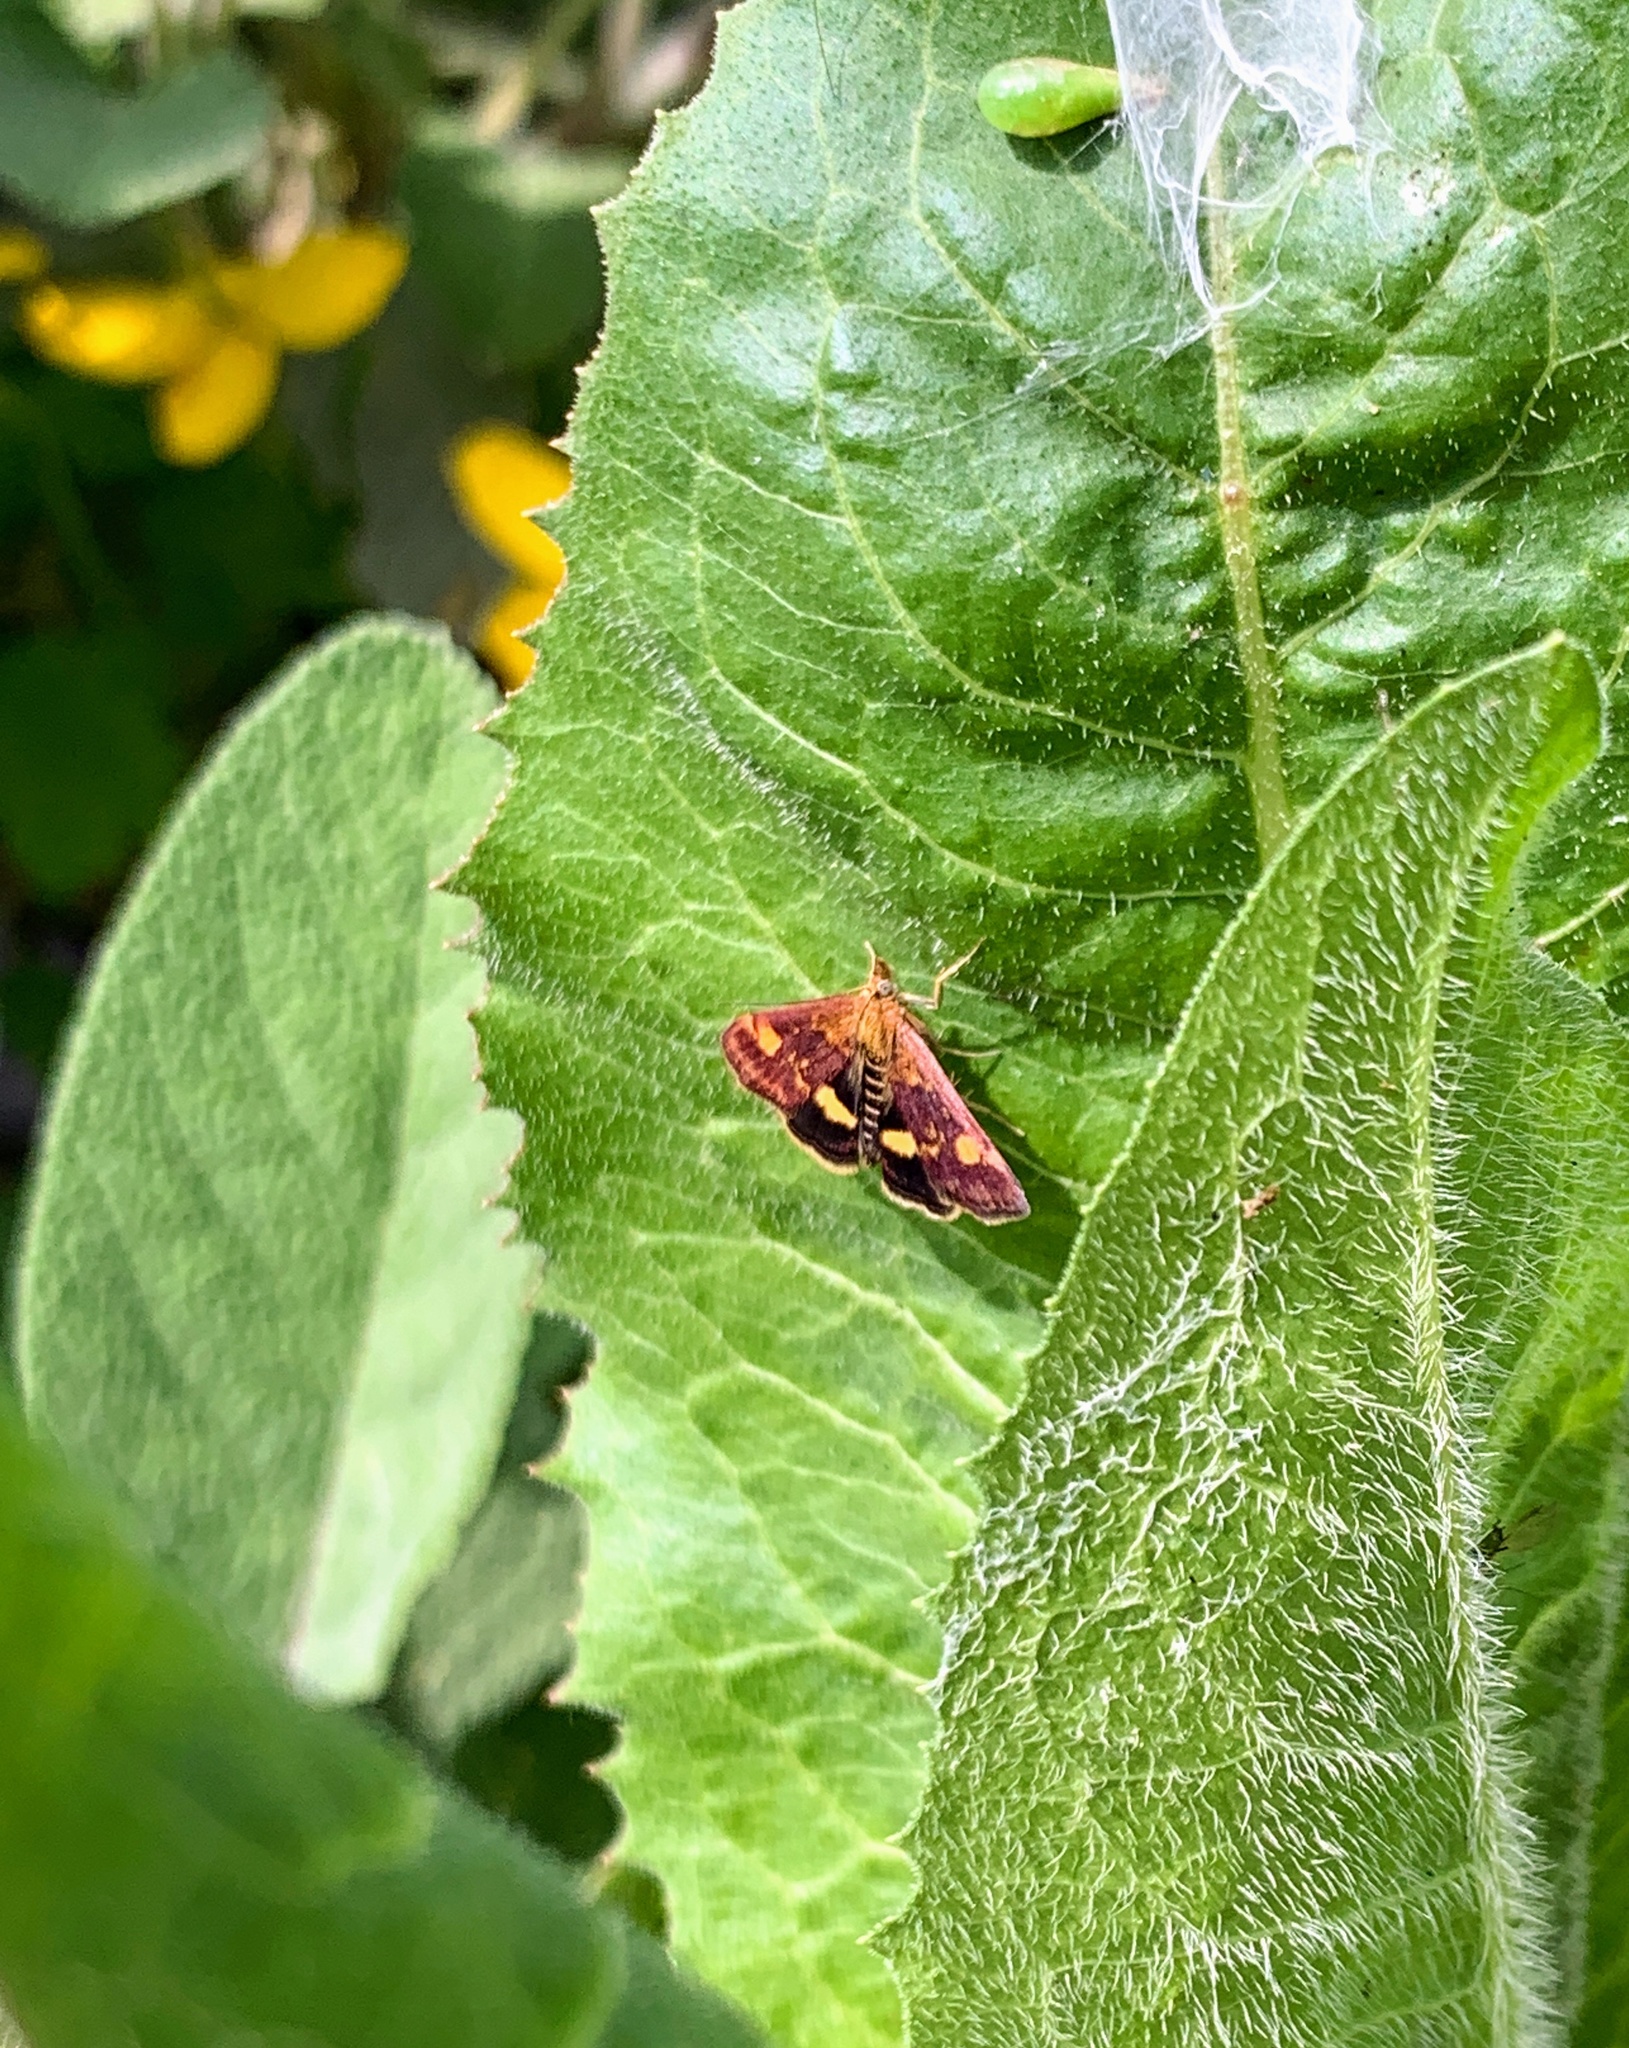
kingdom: Animalia
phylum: Arthropoda
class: Insecta
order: Lepidoptera
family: Crambidae
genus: Pyrausta
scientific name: Pyrausta aurata
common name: Small purple & gold
